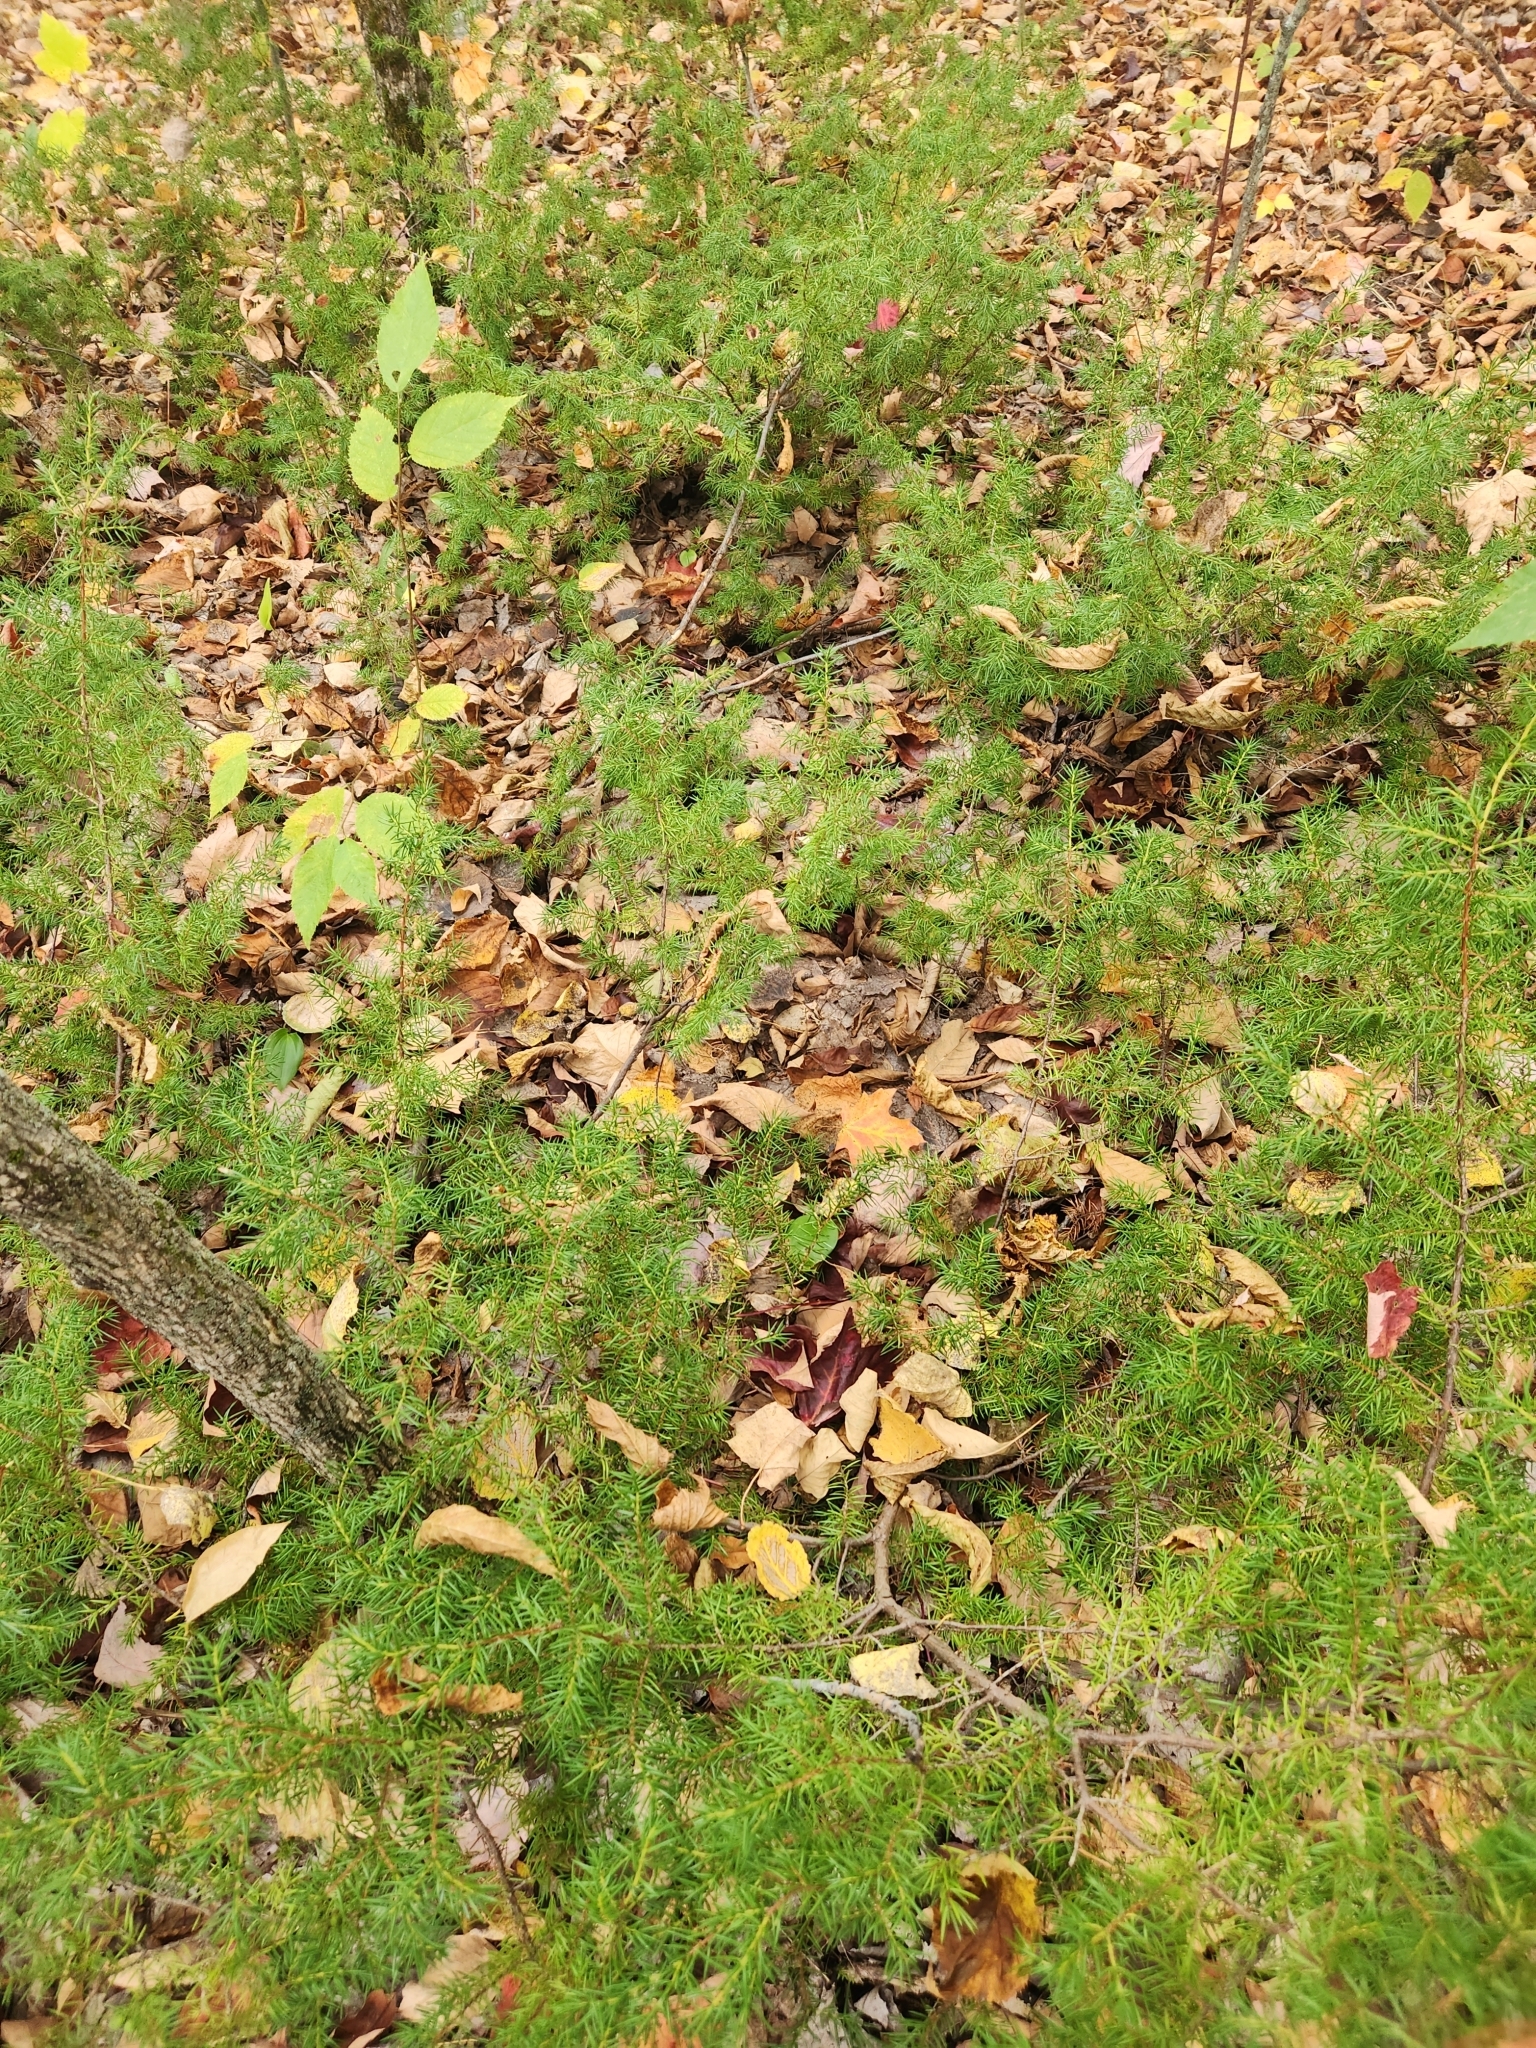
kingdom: Plantae
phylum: Tracheophyta
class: Pinopsida
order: Pinales
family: Cupressaceae
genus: Juniperus
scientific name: Juniperus communis
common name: Common juniper
